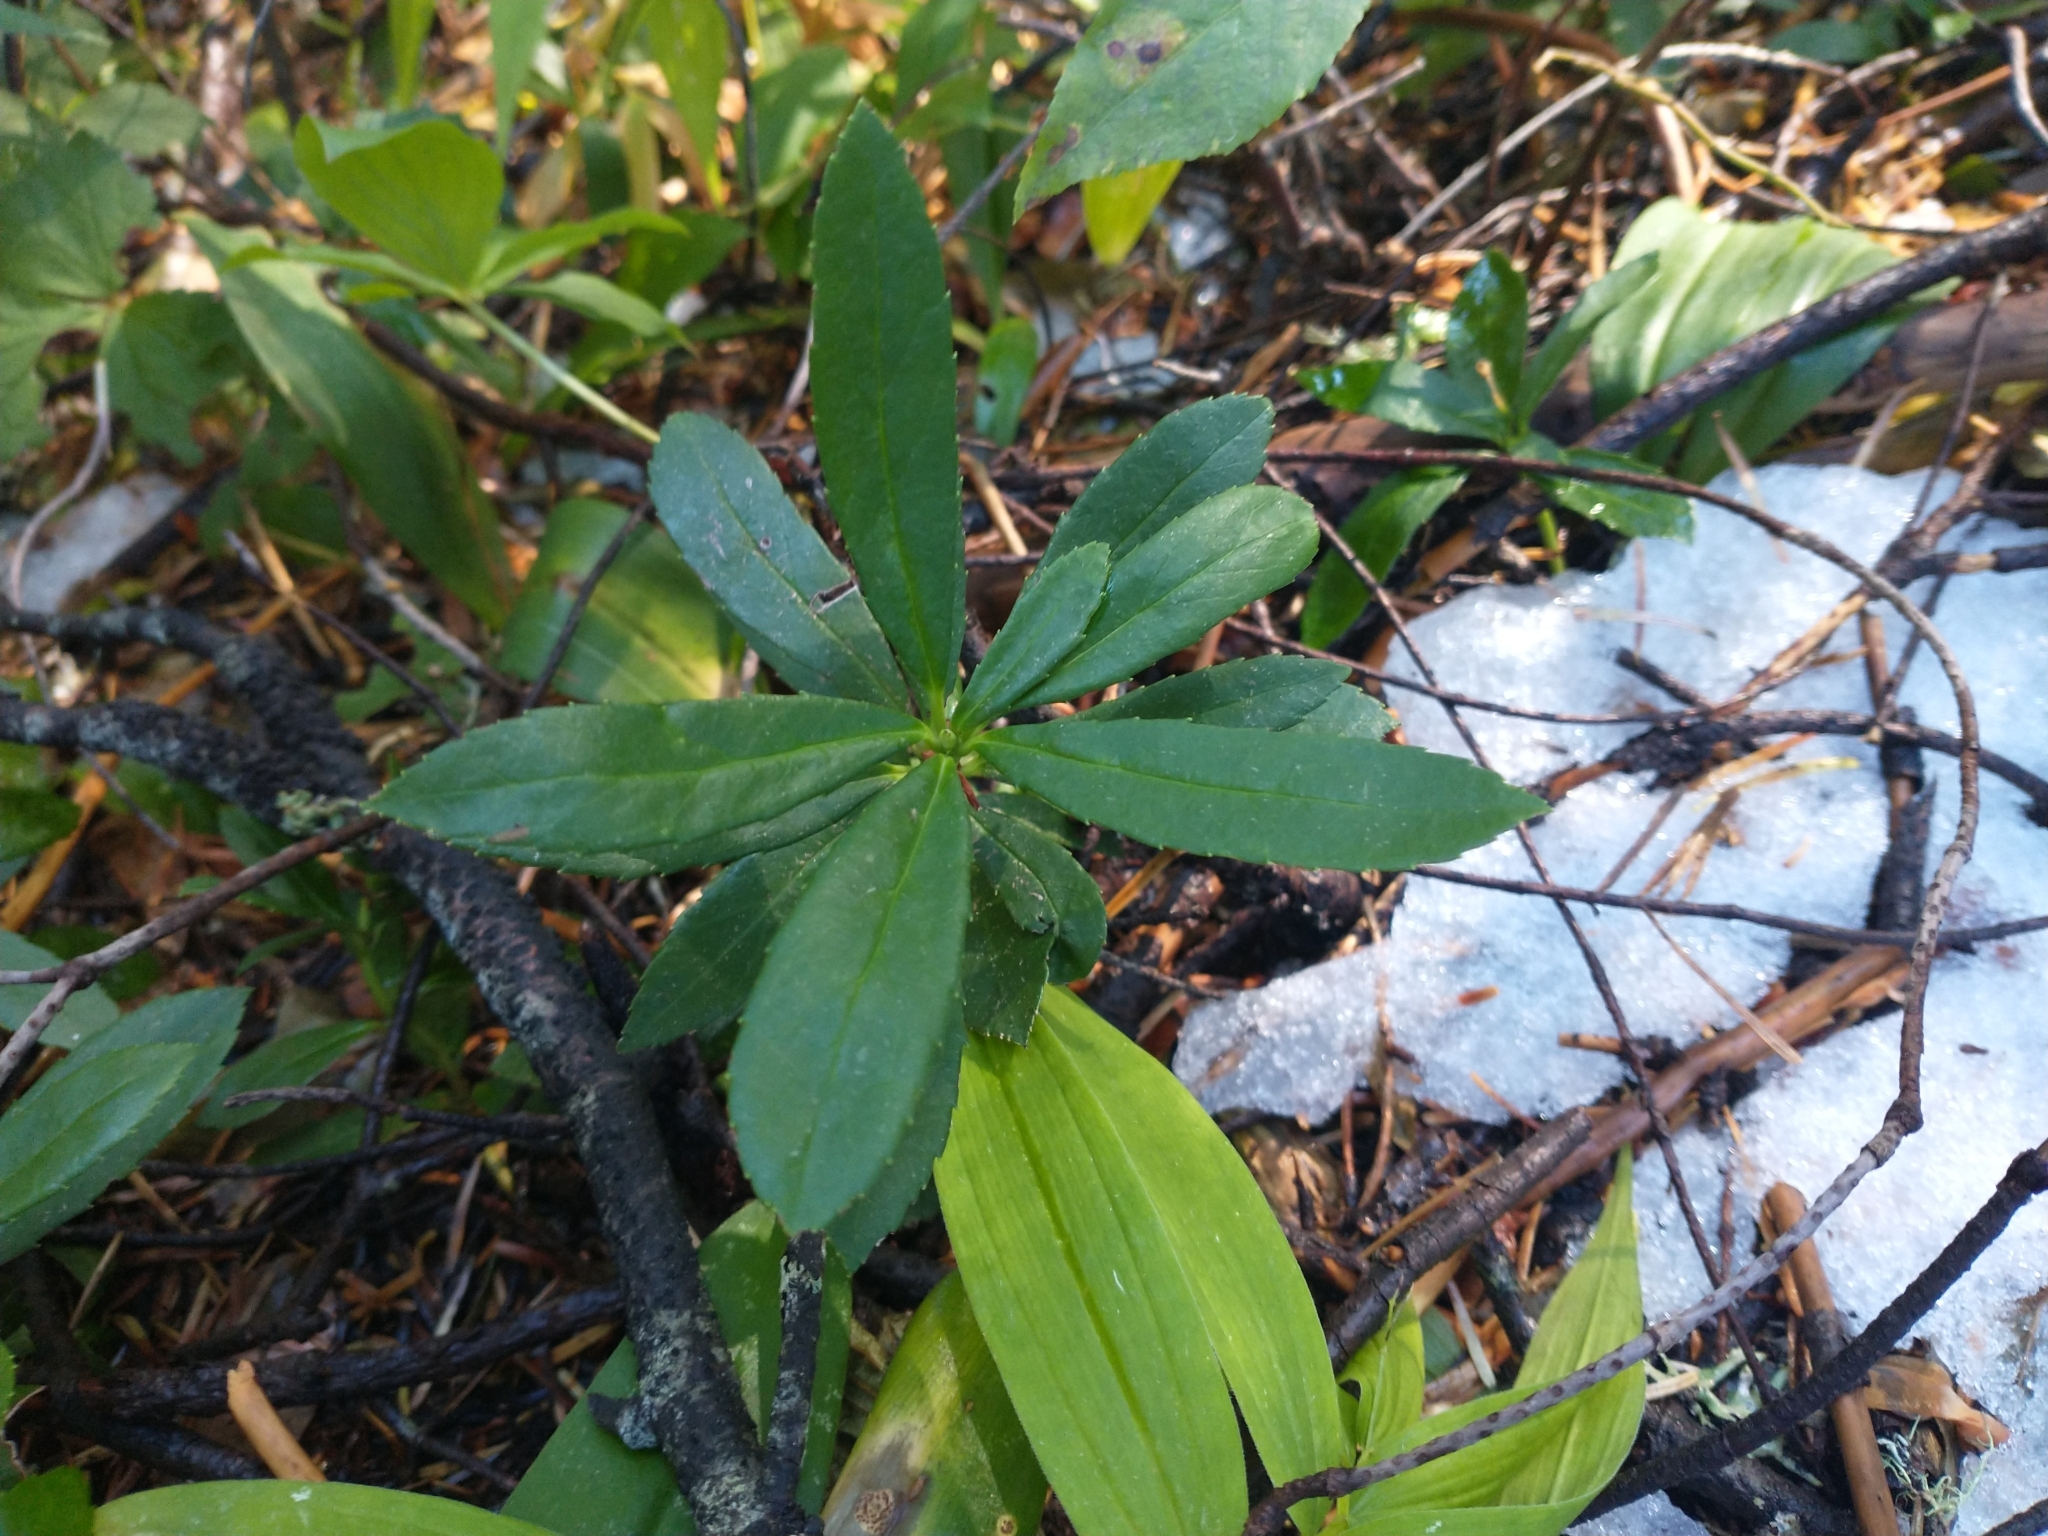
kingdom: Plantae
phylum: Tracheophyta
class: Magnoliopsida
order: Ericales
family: Ericaceae
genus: Chimaphila
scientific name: Chimaphila umbellata
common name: Pipsissewa
